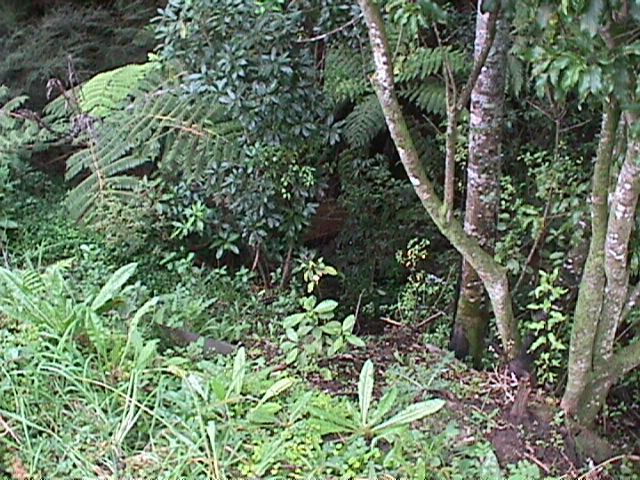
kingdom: Plantae
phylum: Tracheophyta
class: Pinopsida
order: Pinales
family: Phyllocladaceae
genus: Phyllocladus
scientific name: Phyllocladus trichomanoides
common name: Celery pine
